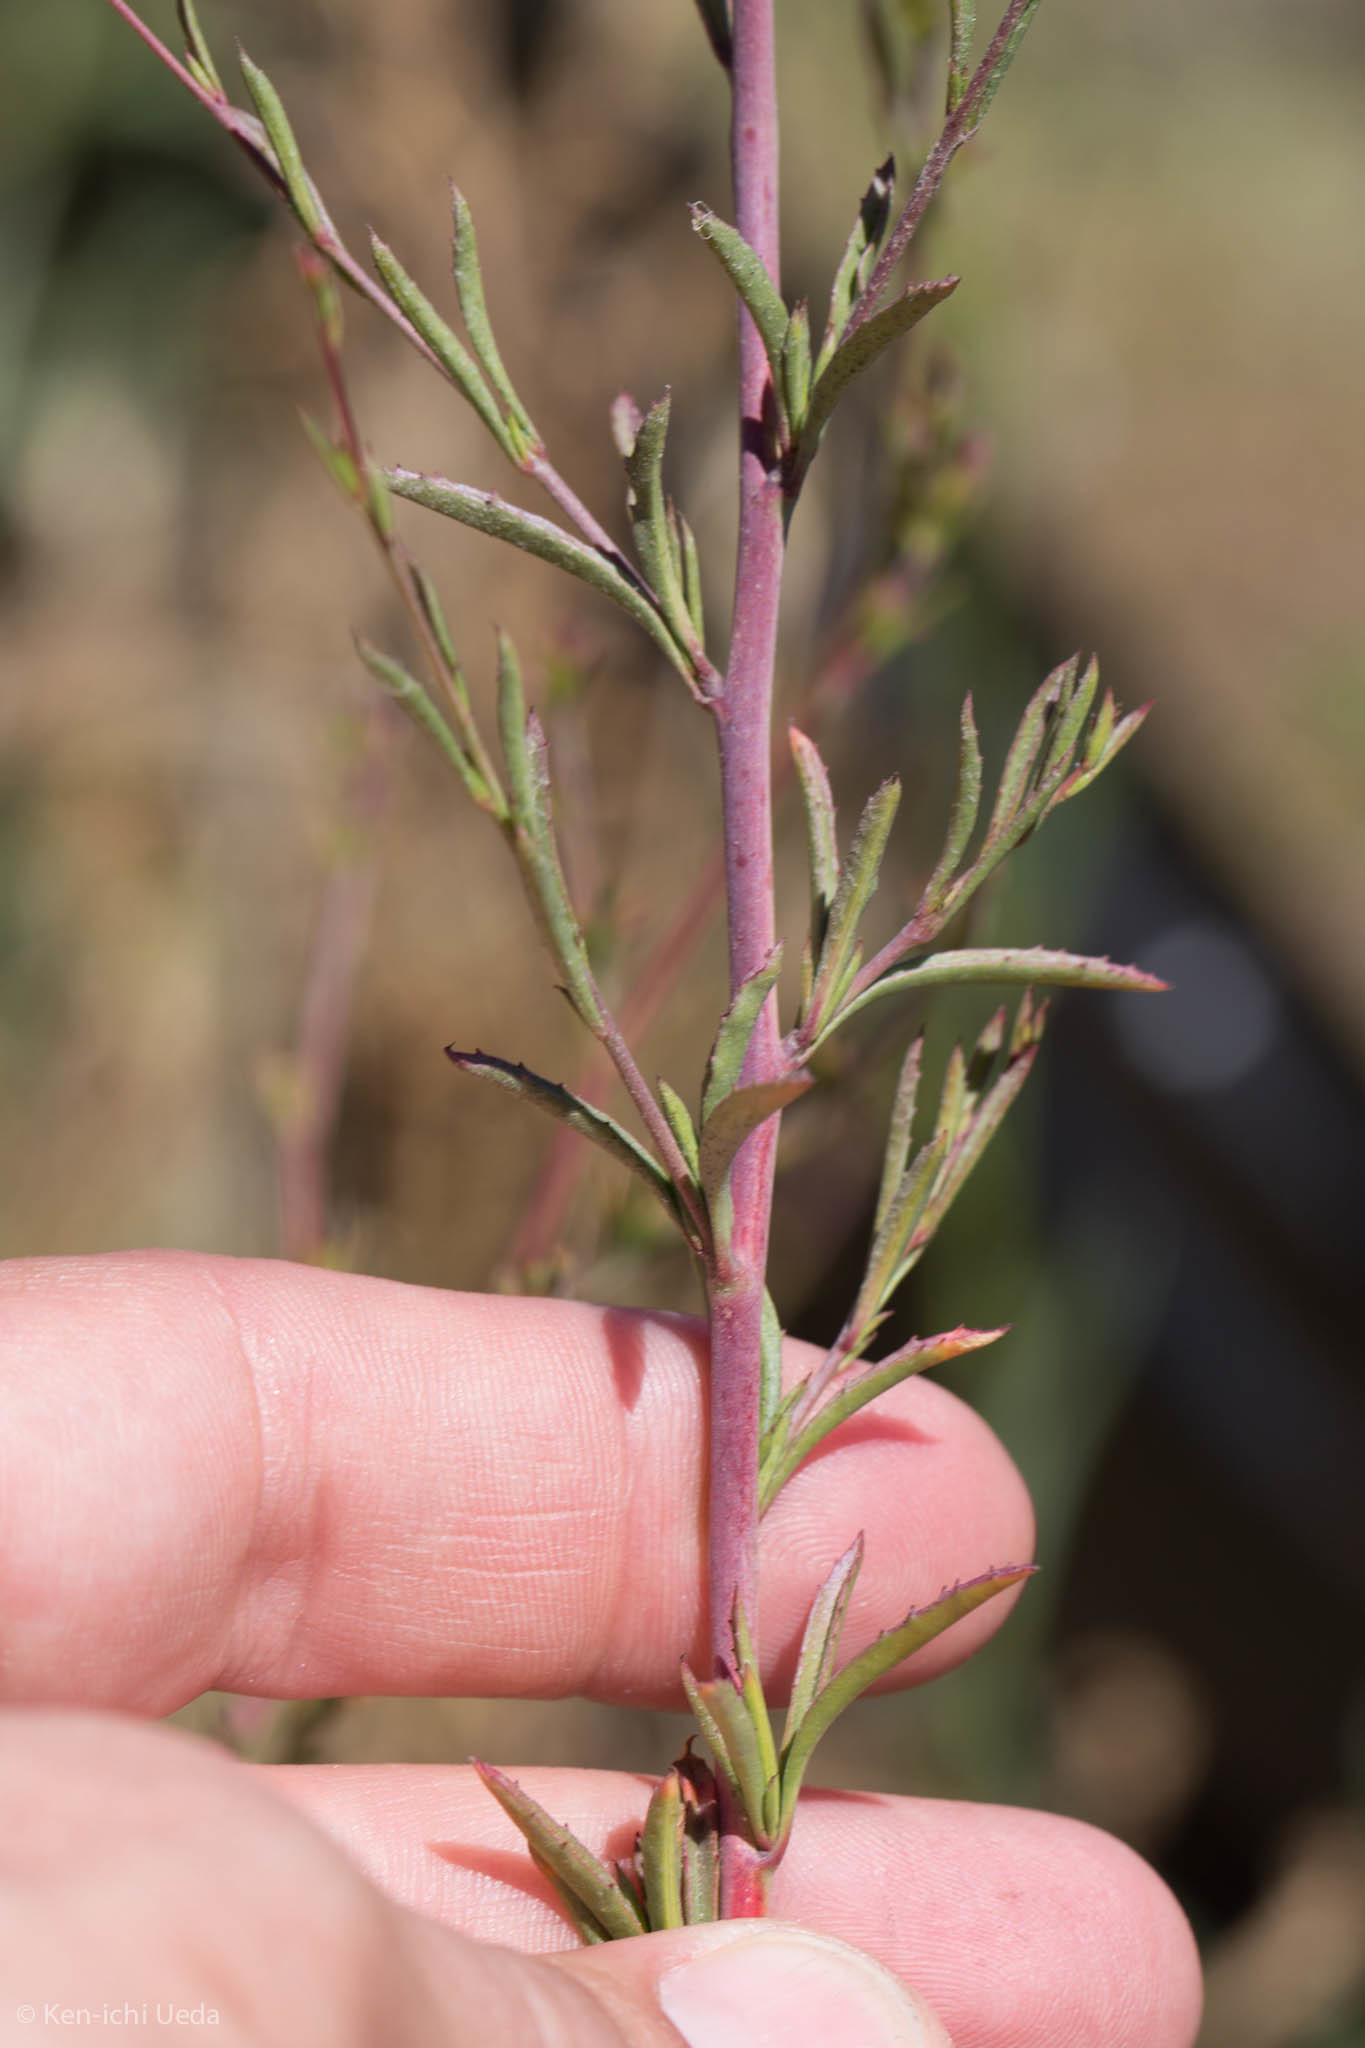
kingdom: Plantae
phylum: Tracheophyta
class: Magnoliopsida
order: Myrtales
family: Onagraceae
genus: Epilobium
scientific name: Epilobium brachycarpum
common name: Annual willowherb
